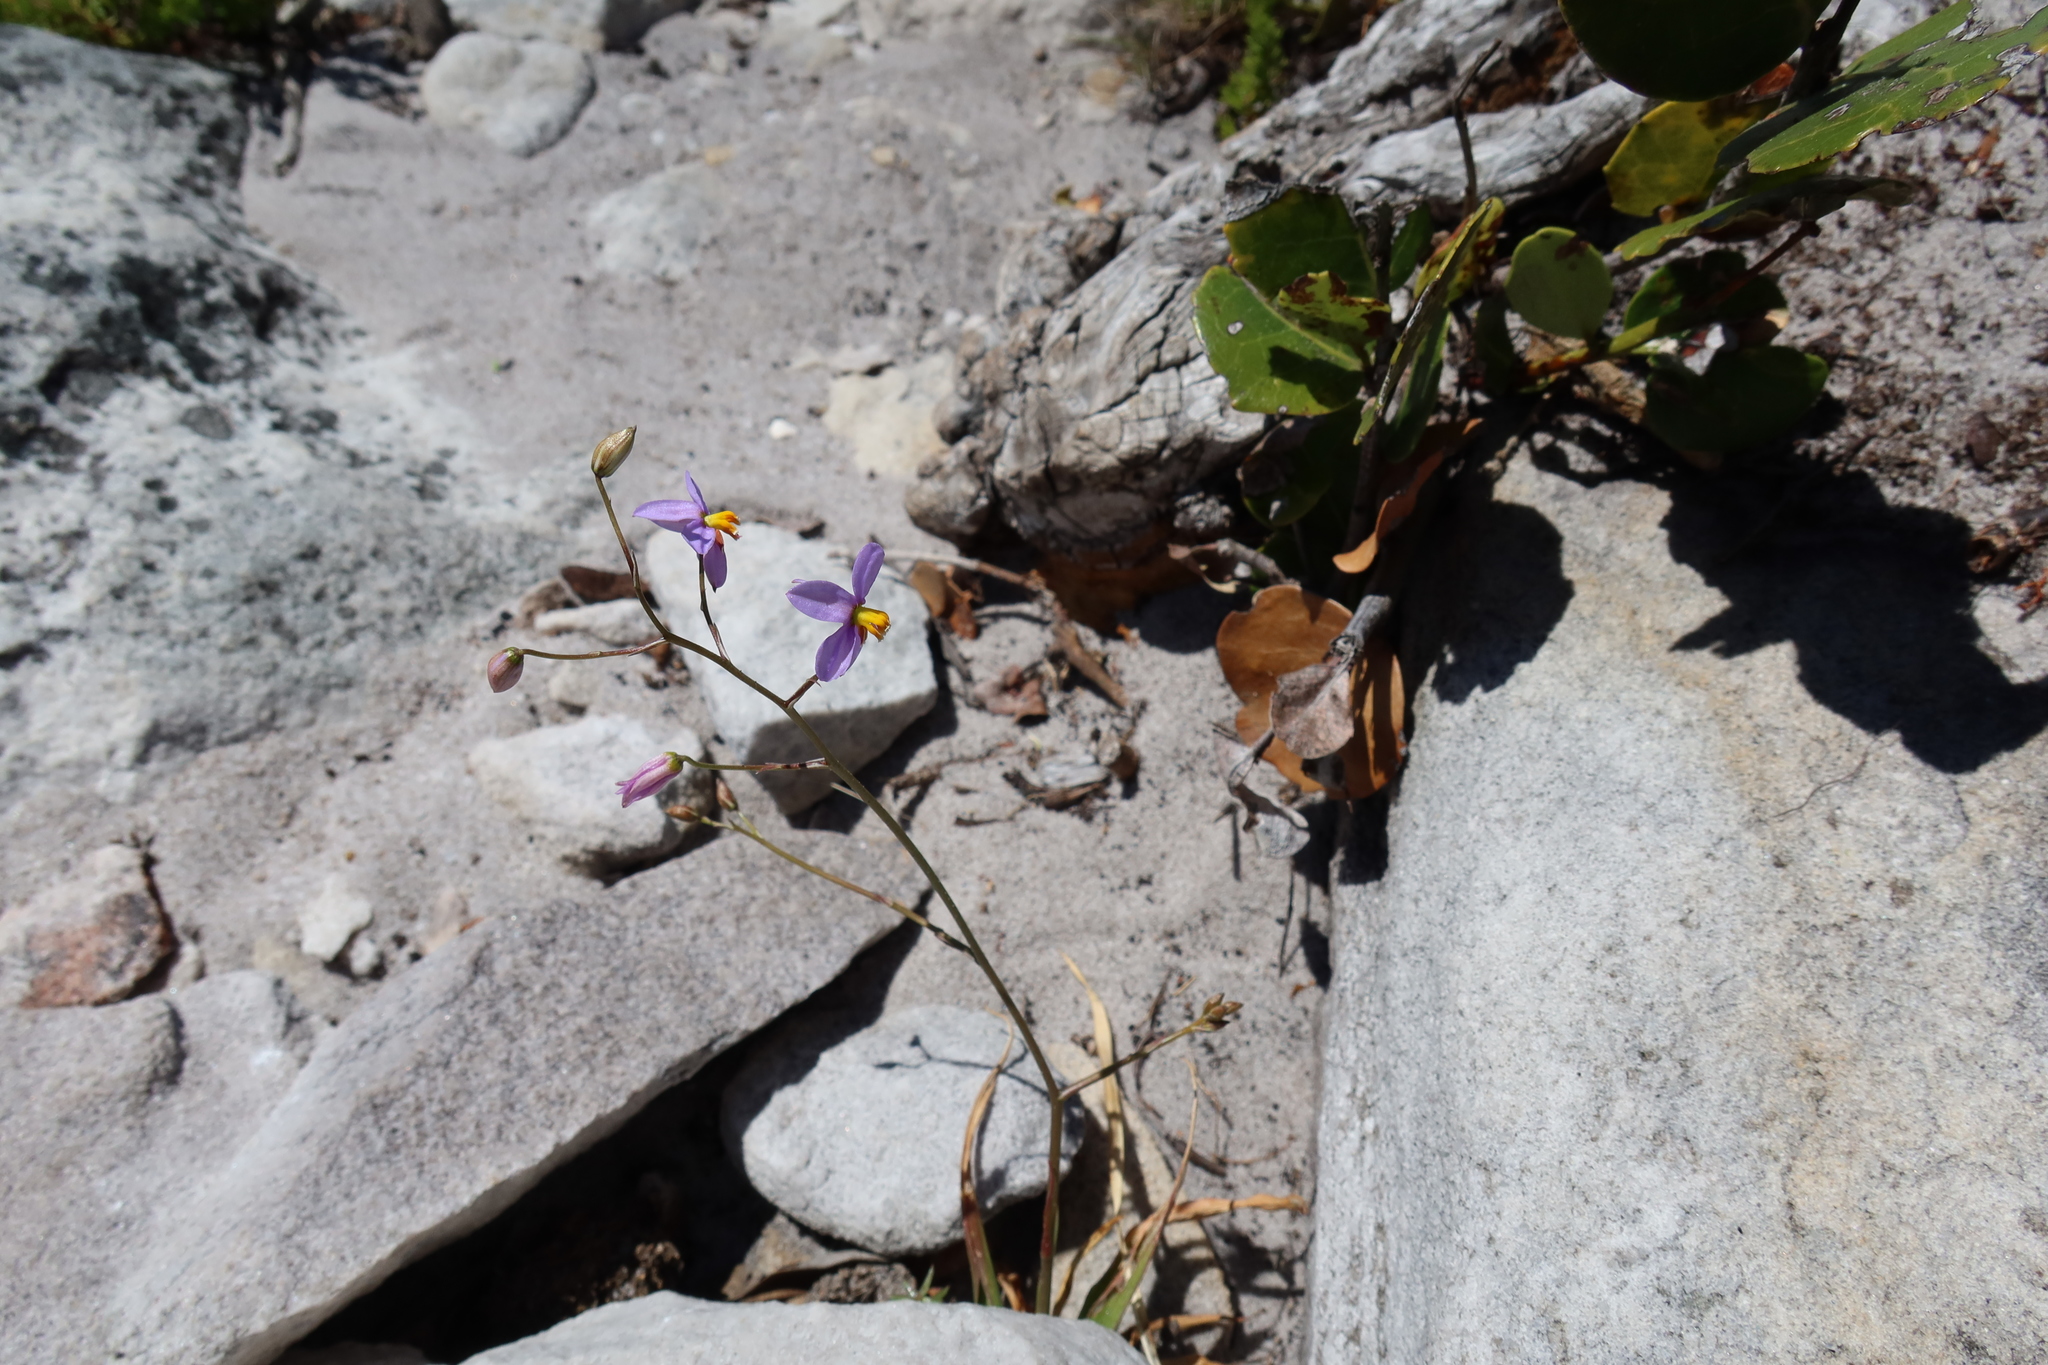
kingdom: Plantae
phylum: Tracheophyta
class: Liliopsida
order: Asparagales
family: Tecophilaeaceae
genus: Cyanella
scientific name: Cyanella hyacinthoides
